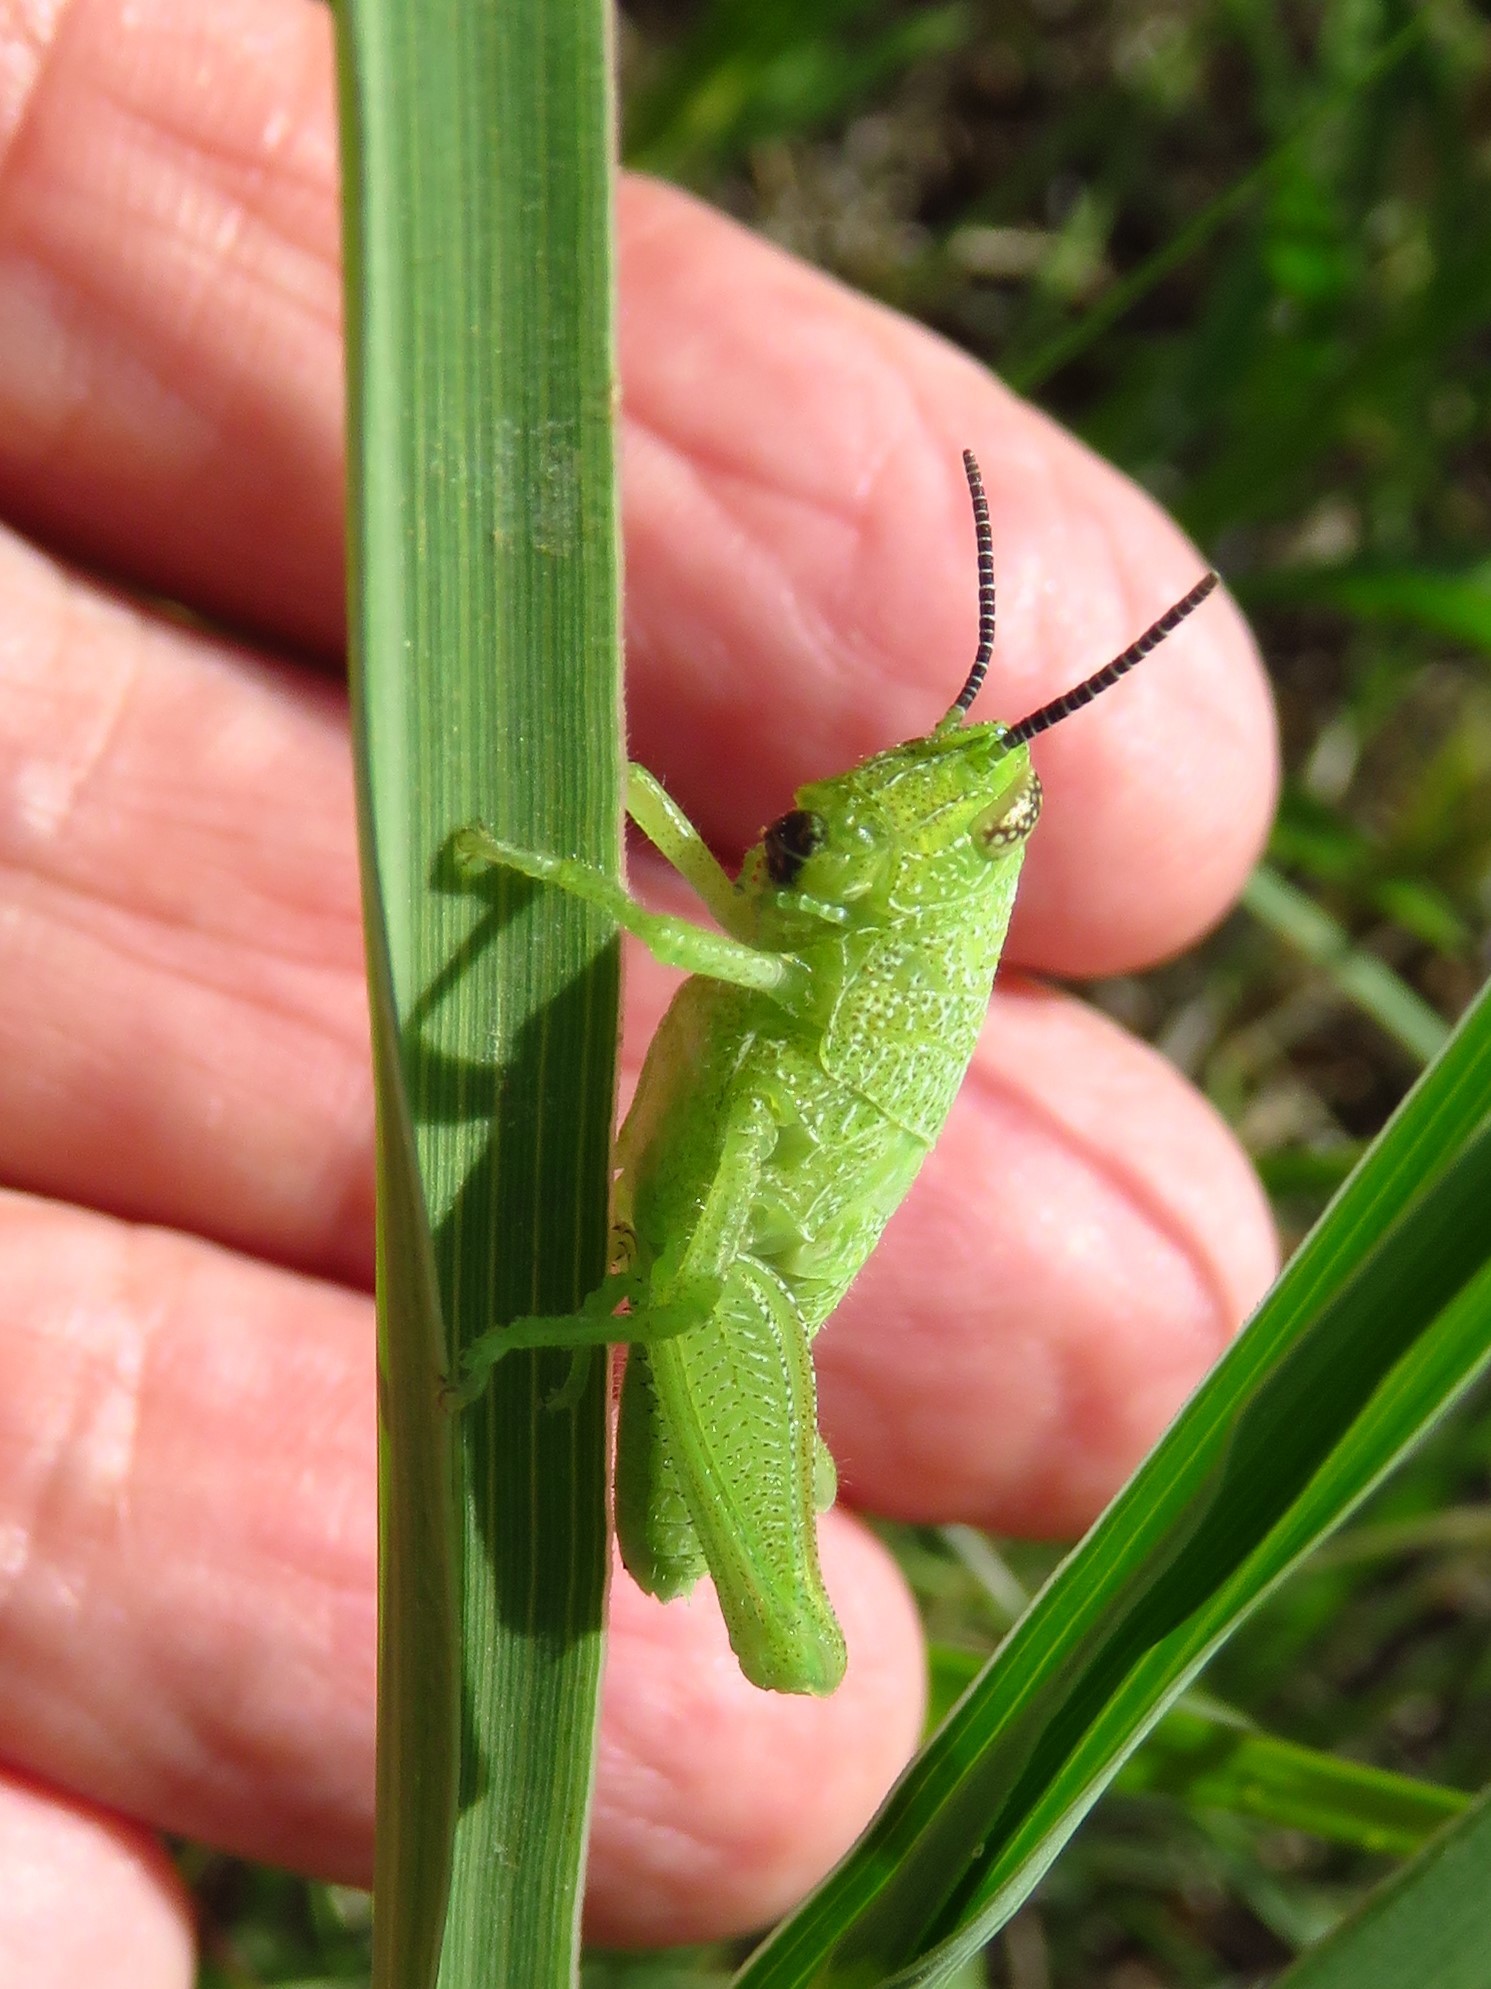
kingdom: Animalia
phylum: Arthropoda
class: Insecta
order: Orthoptera
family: Acrididae
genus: Hesperotettix
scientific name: Hesperotettix speciosus
